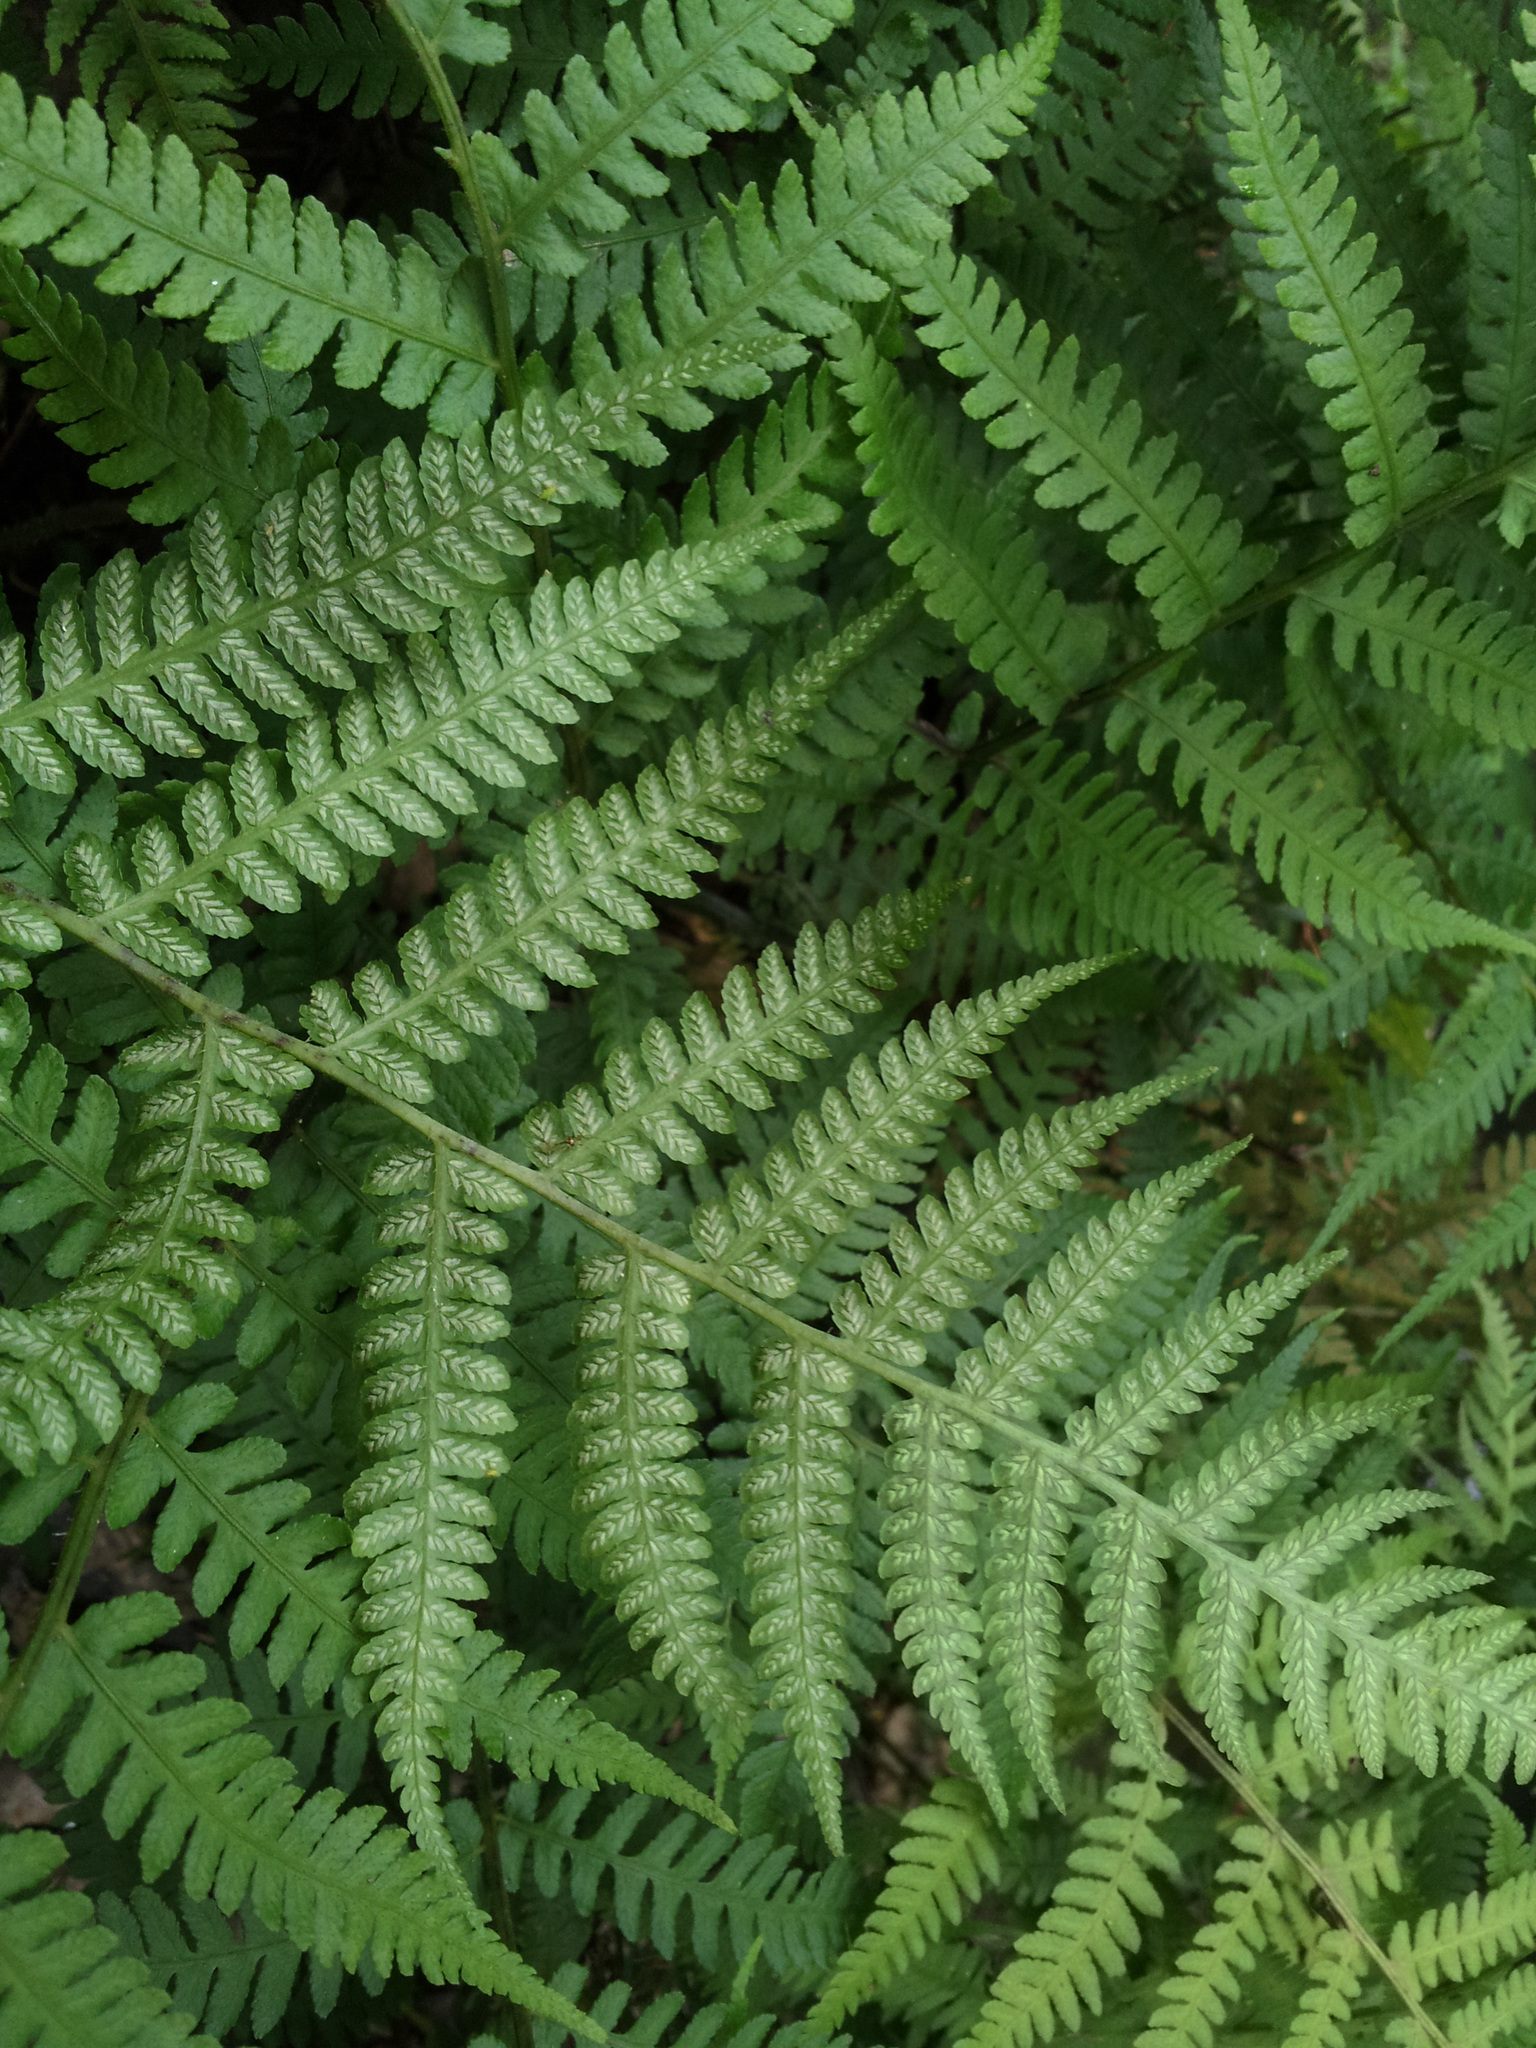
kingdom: Plantae
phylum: Tracheophyta
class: Polypodiopsida
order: Polypodiales
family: Athyriaceae
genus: Diplazium
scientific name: Diplazium congruum
